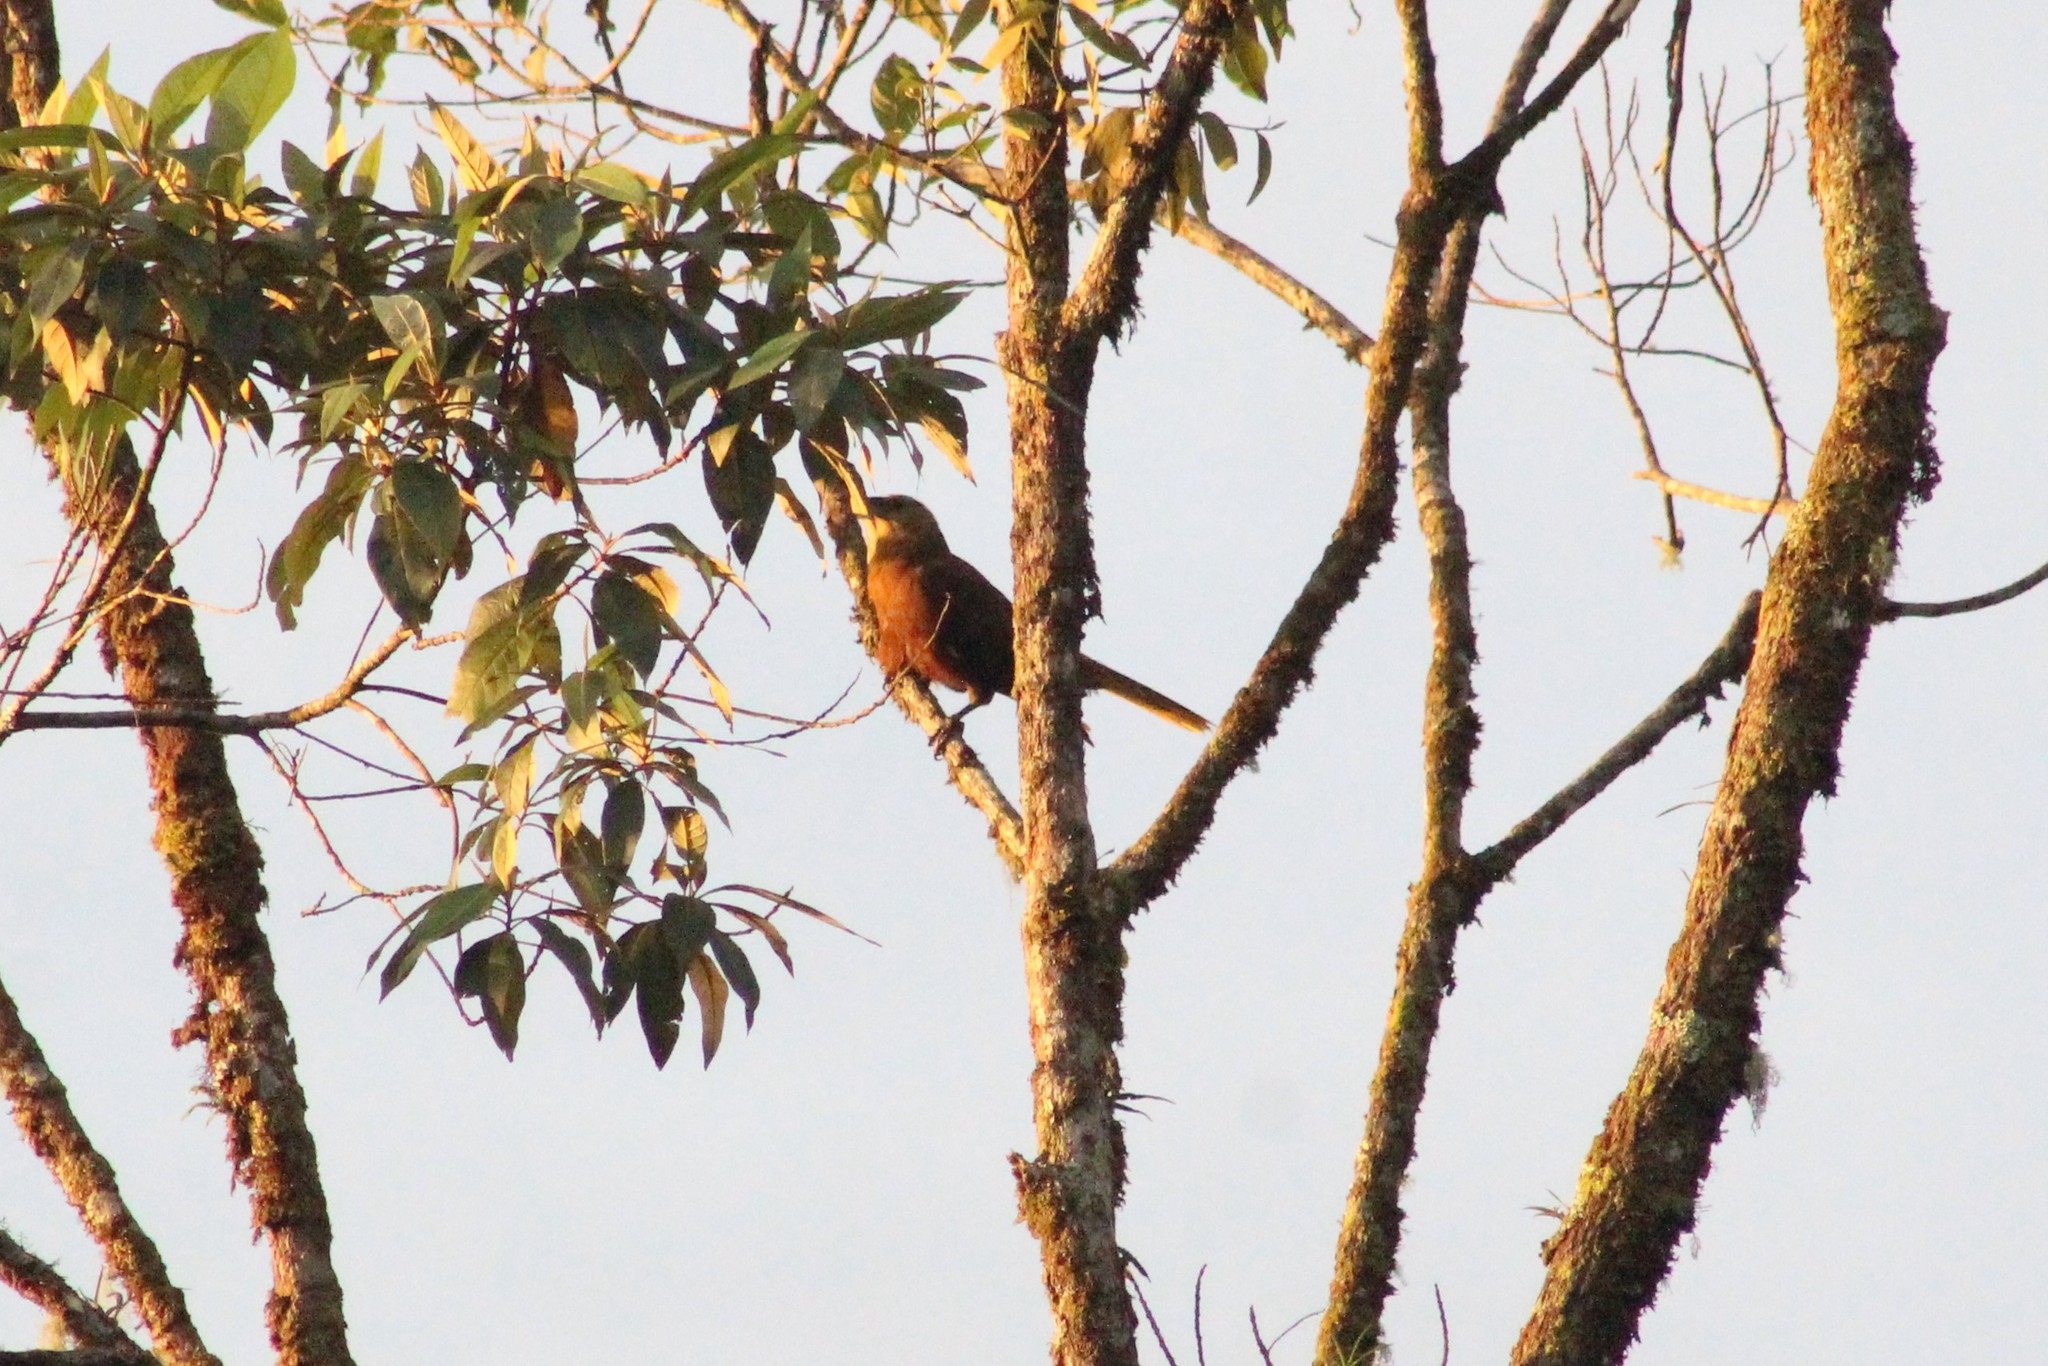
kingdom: Animalia
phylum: Chordata
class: Aves
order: Passeriformes
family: Icteridae
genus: Psarocolius
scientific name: Psarocolius angustifrons
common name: Russet-backed oropendola
